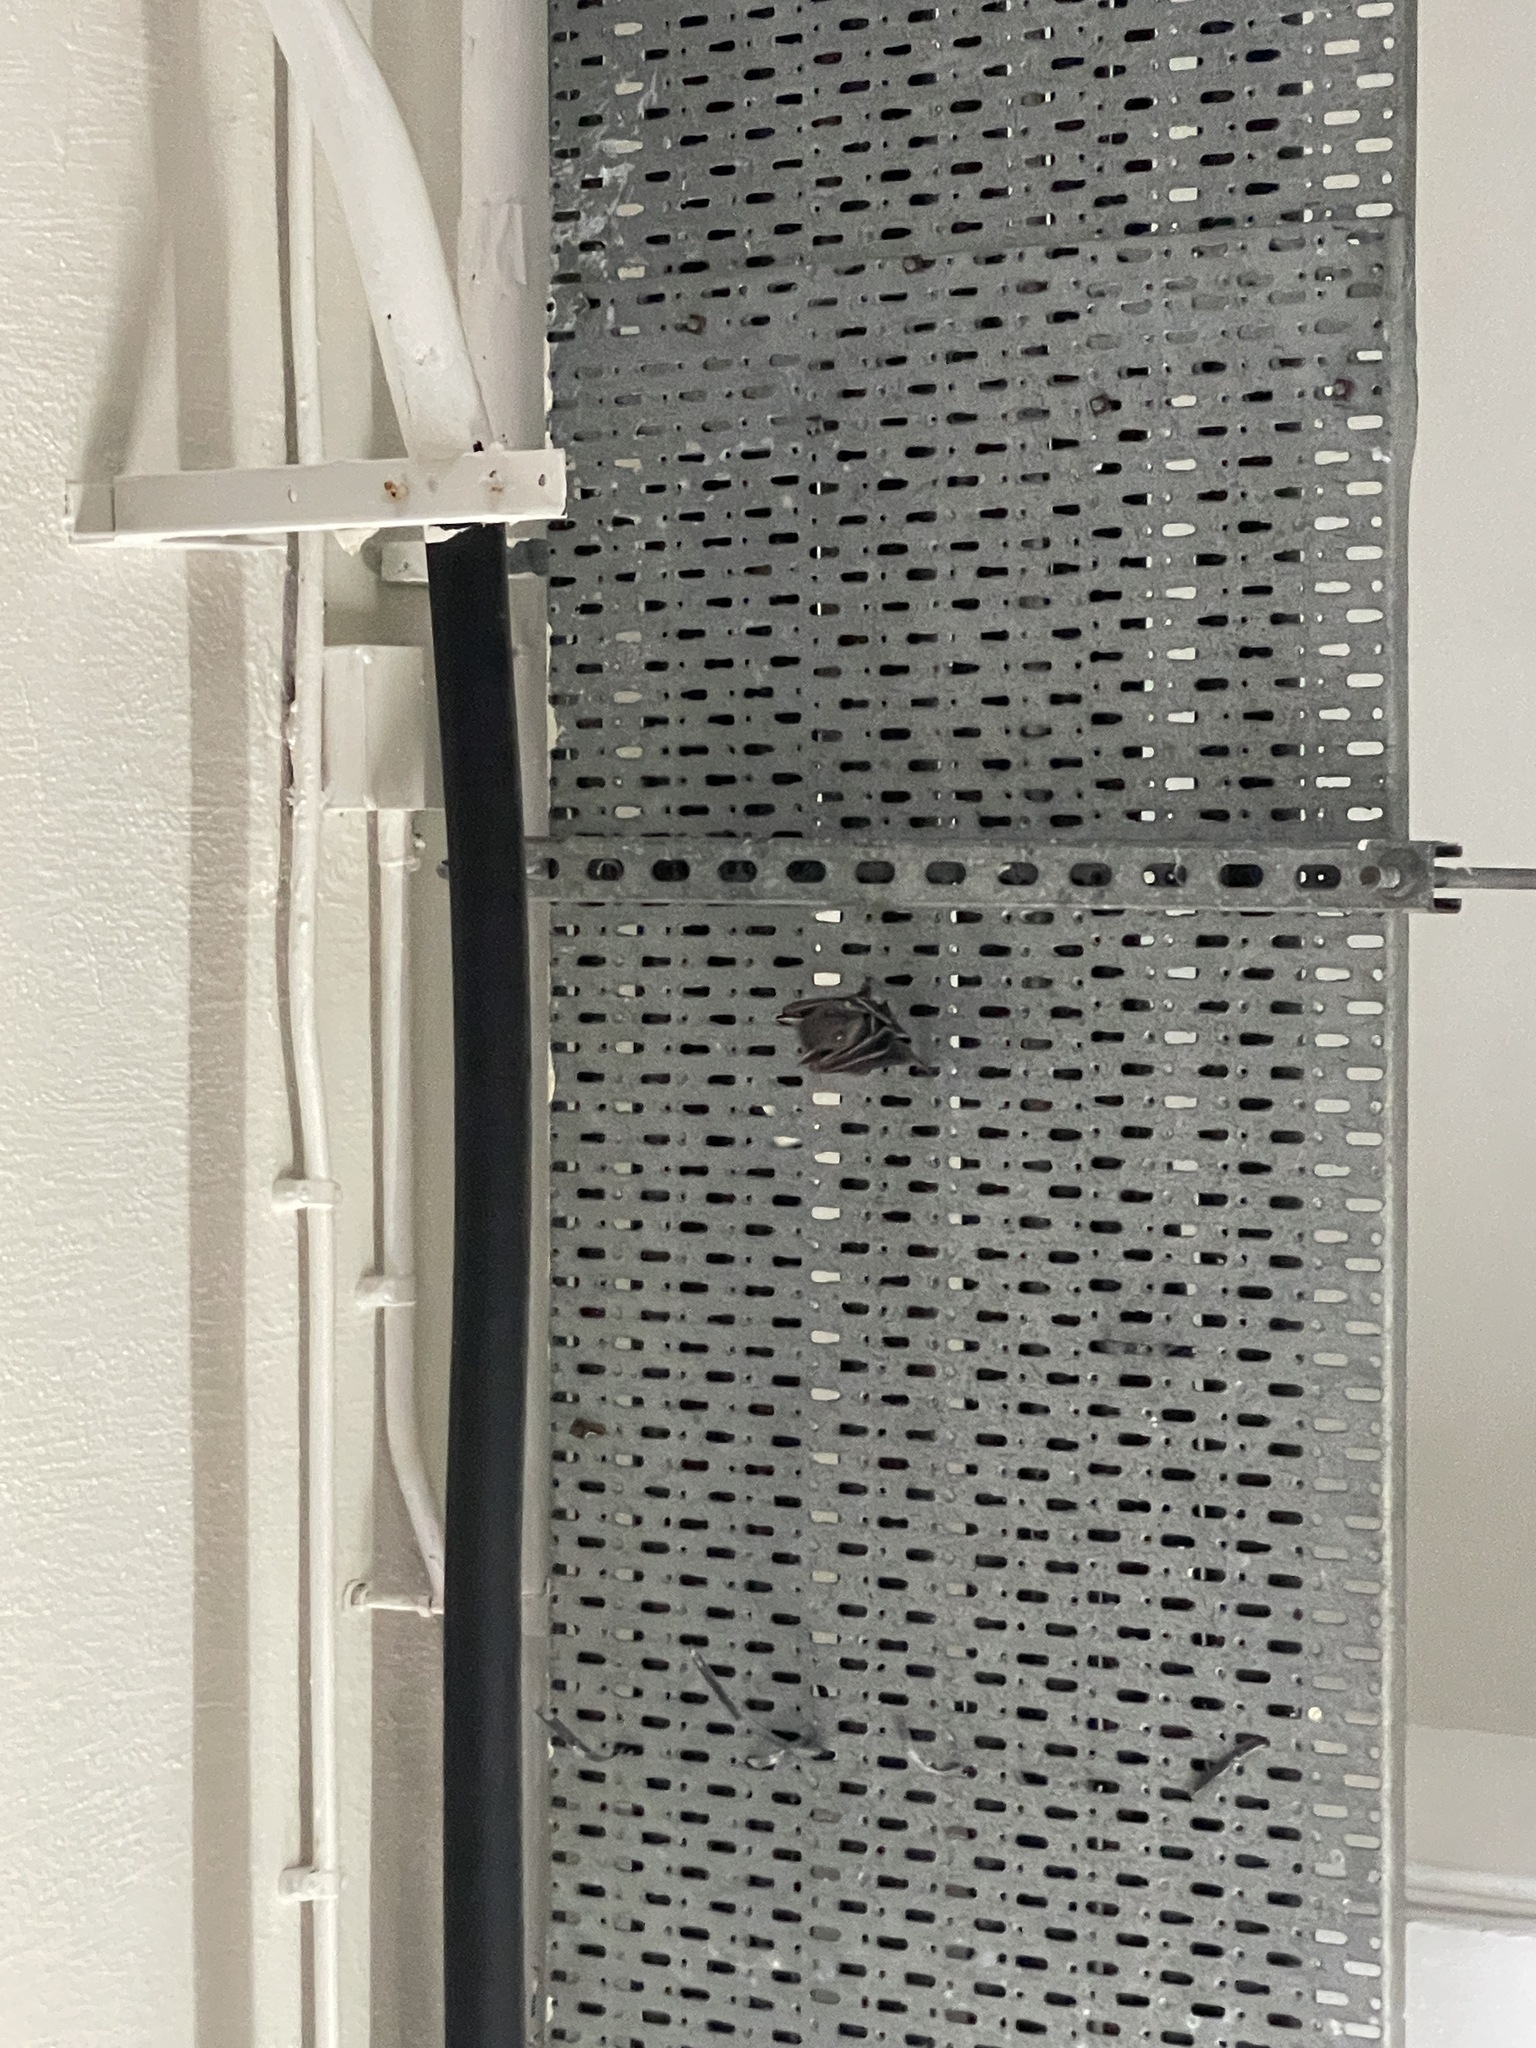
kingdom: Animalia
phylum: Chordata
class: Mammalia
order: Chiroptera
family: Pteropodidae
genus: Cynopterus
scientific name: Cynopterus sphinx
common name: Greater short-nosed fruit bat
